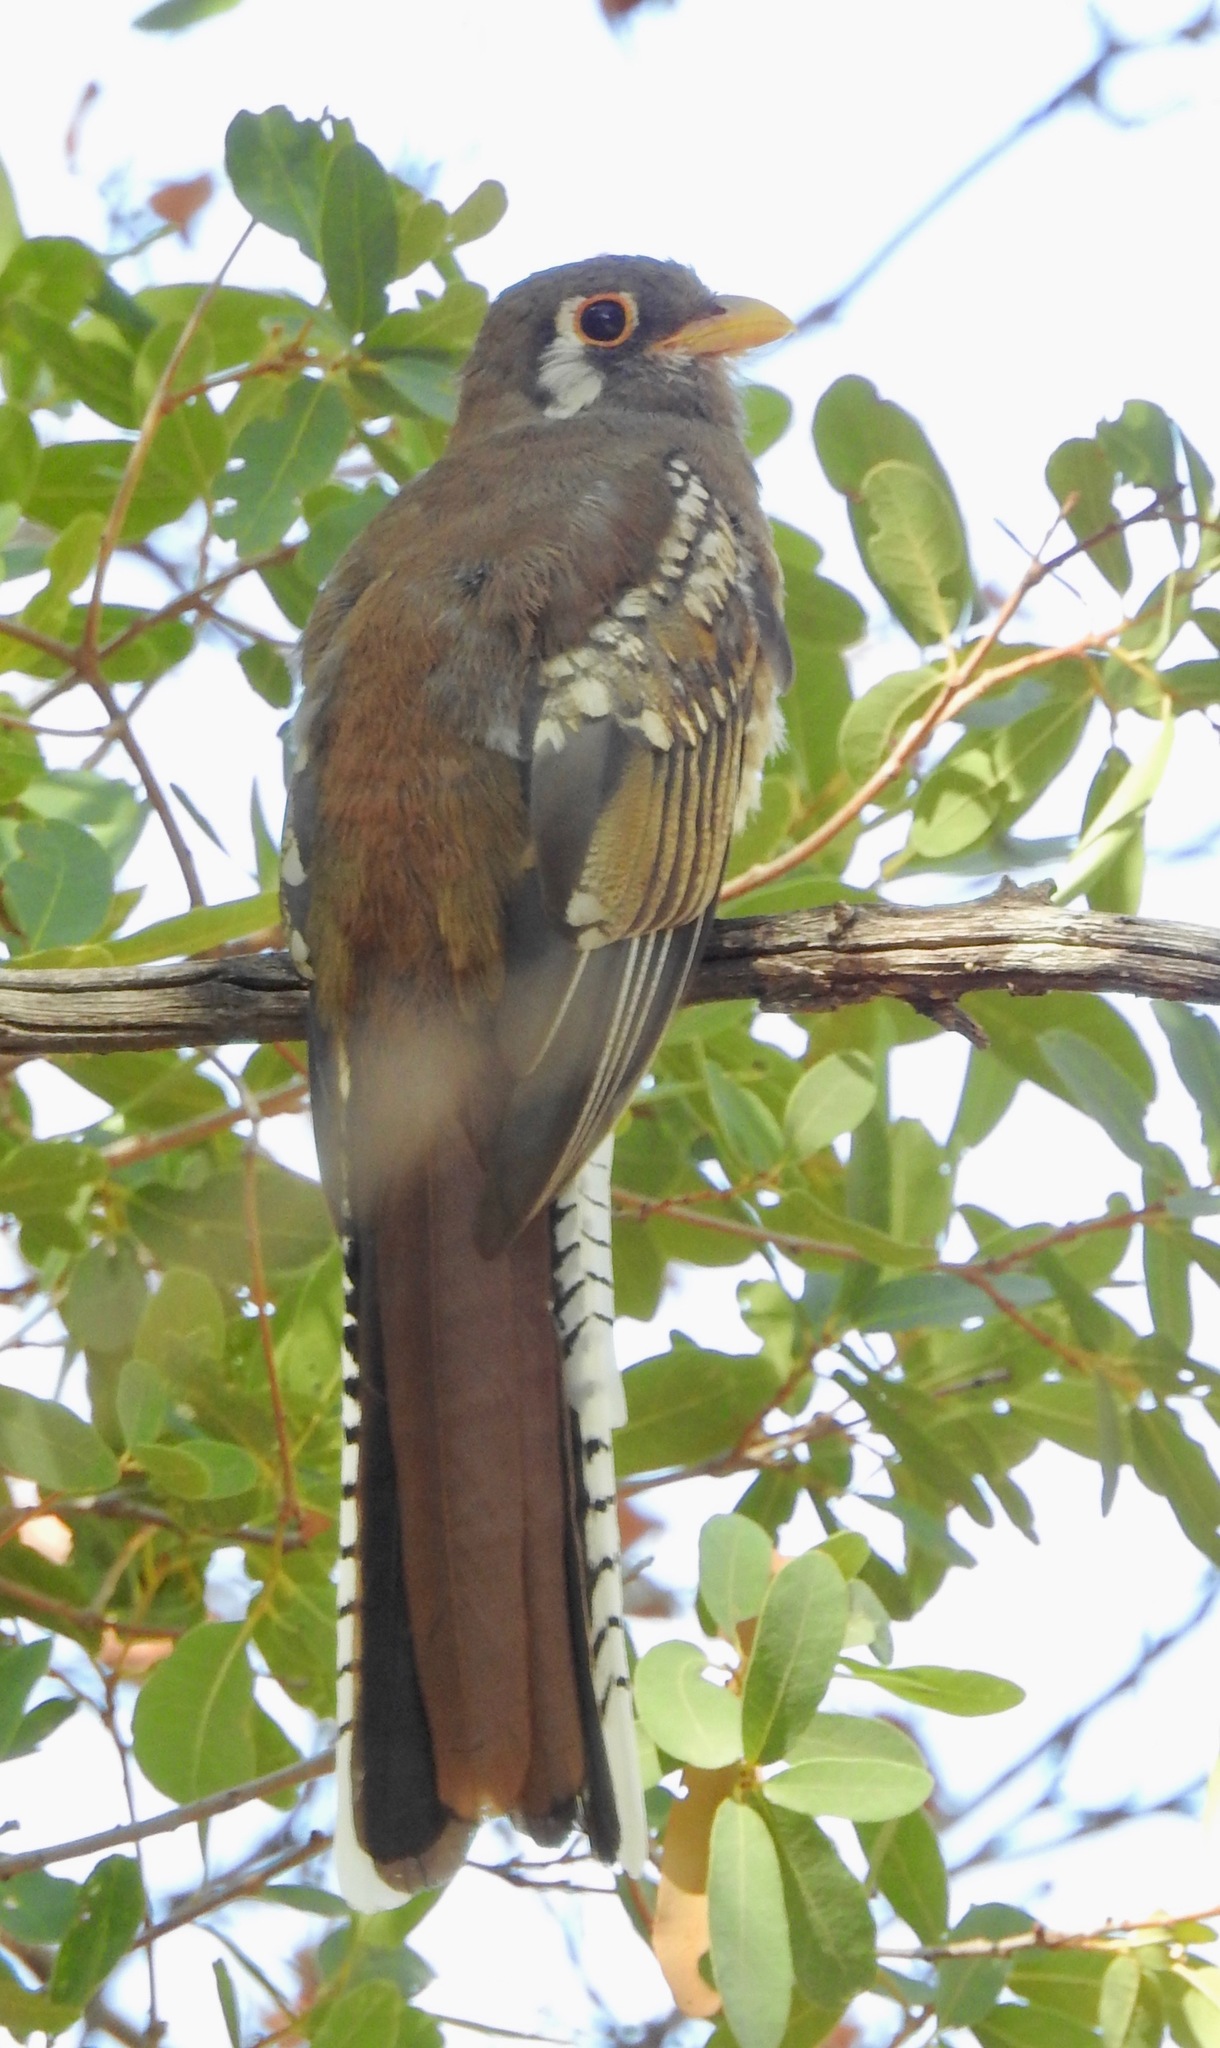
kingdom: Animalia
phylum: Chordata
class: Aves
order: Trogoniformes
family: Trogonidae
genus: Trogon
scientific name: Trogon elegans
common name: Elegant trogon
